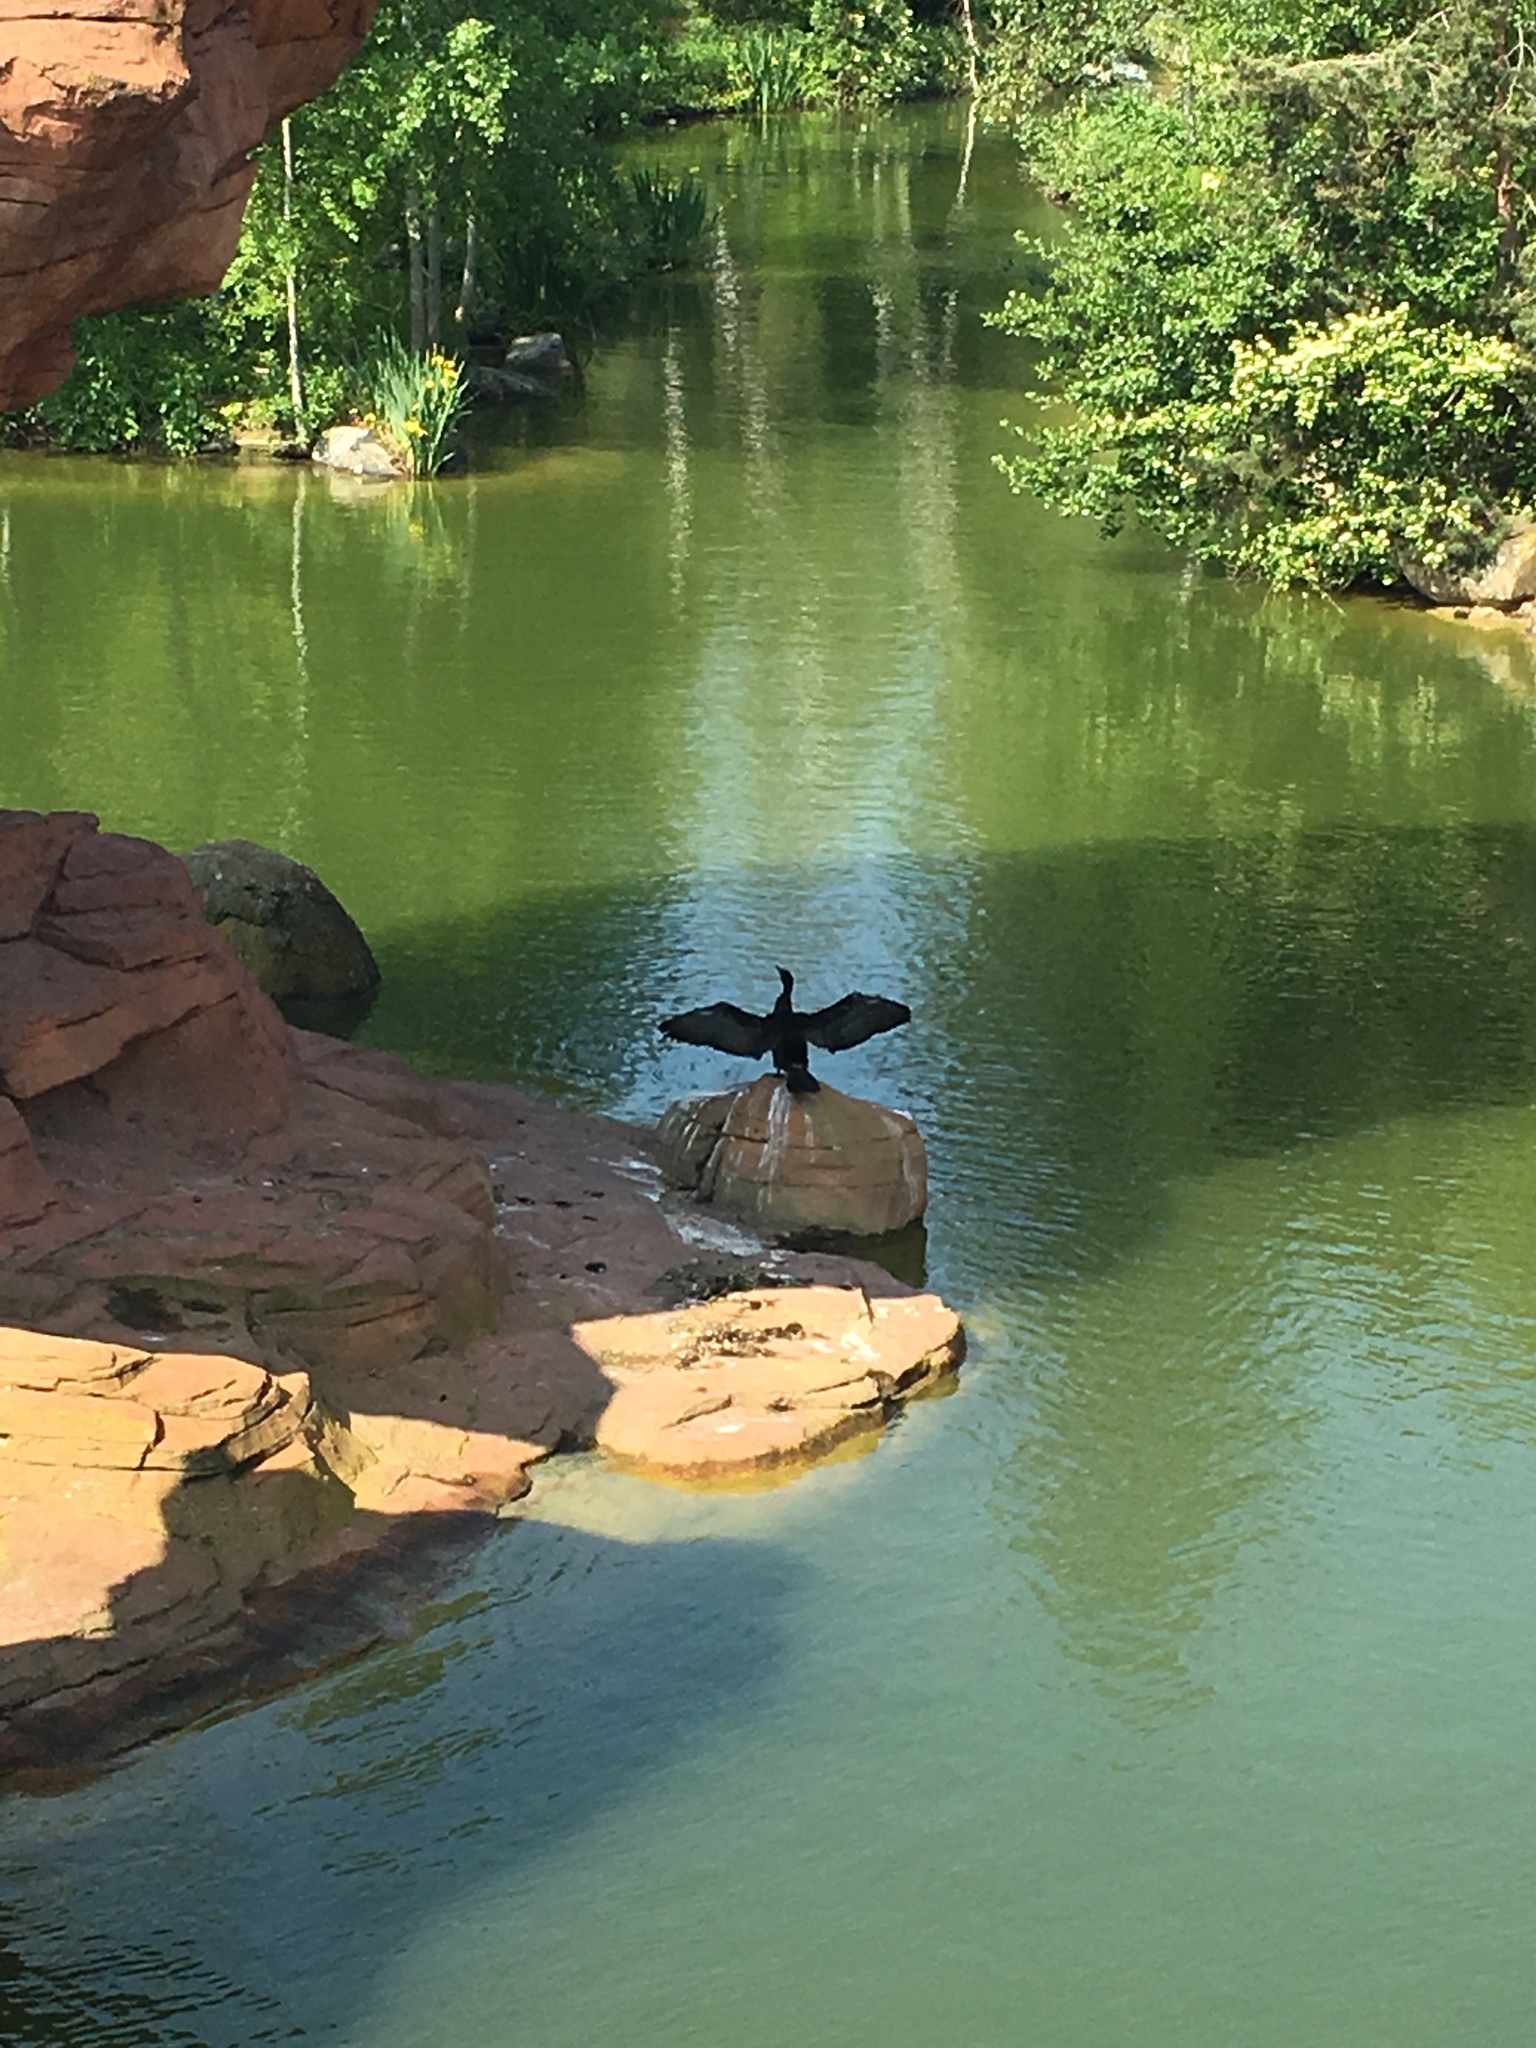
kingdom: Animalia
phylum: Chordata
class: Aves
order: Suliformes
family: Phalacrocoracidae
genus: Phalacrocorax
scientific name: Phalacrocorax carbo
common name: Great cormorant
